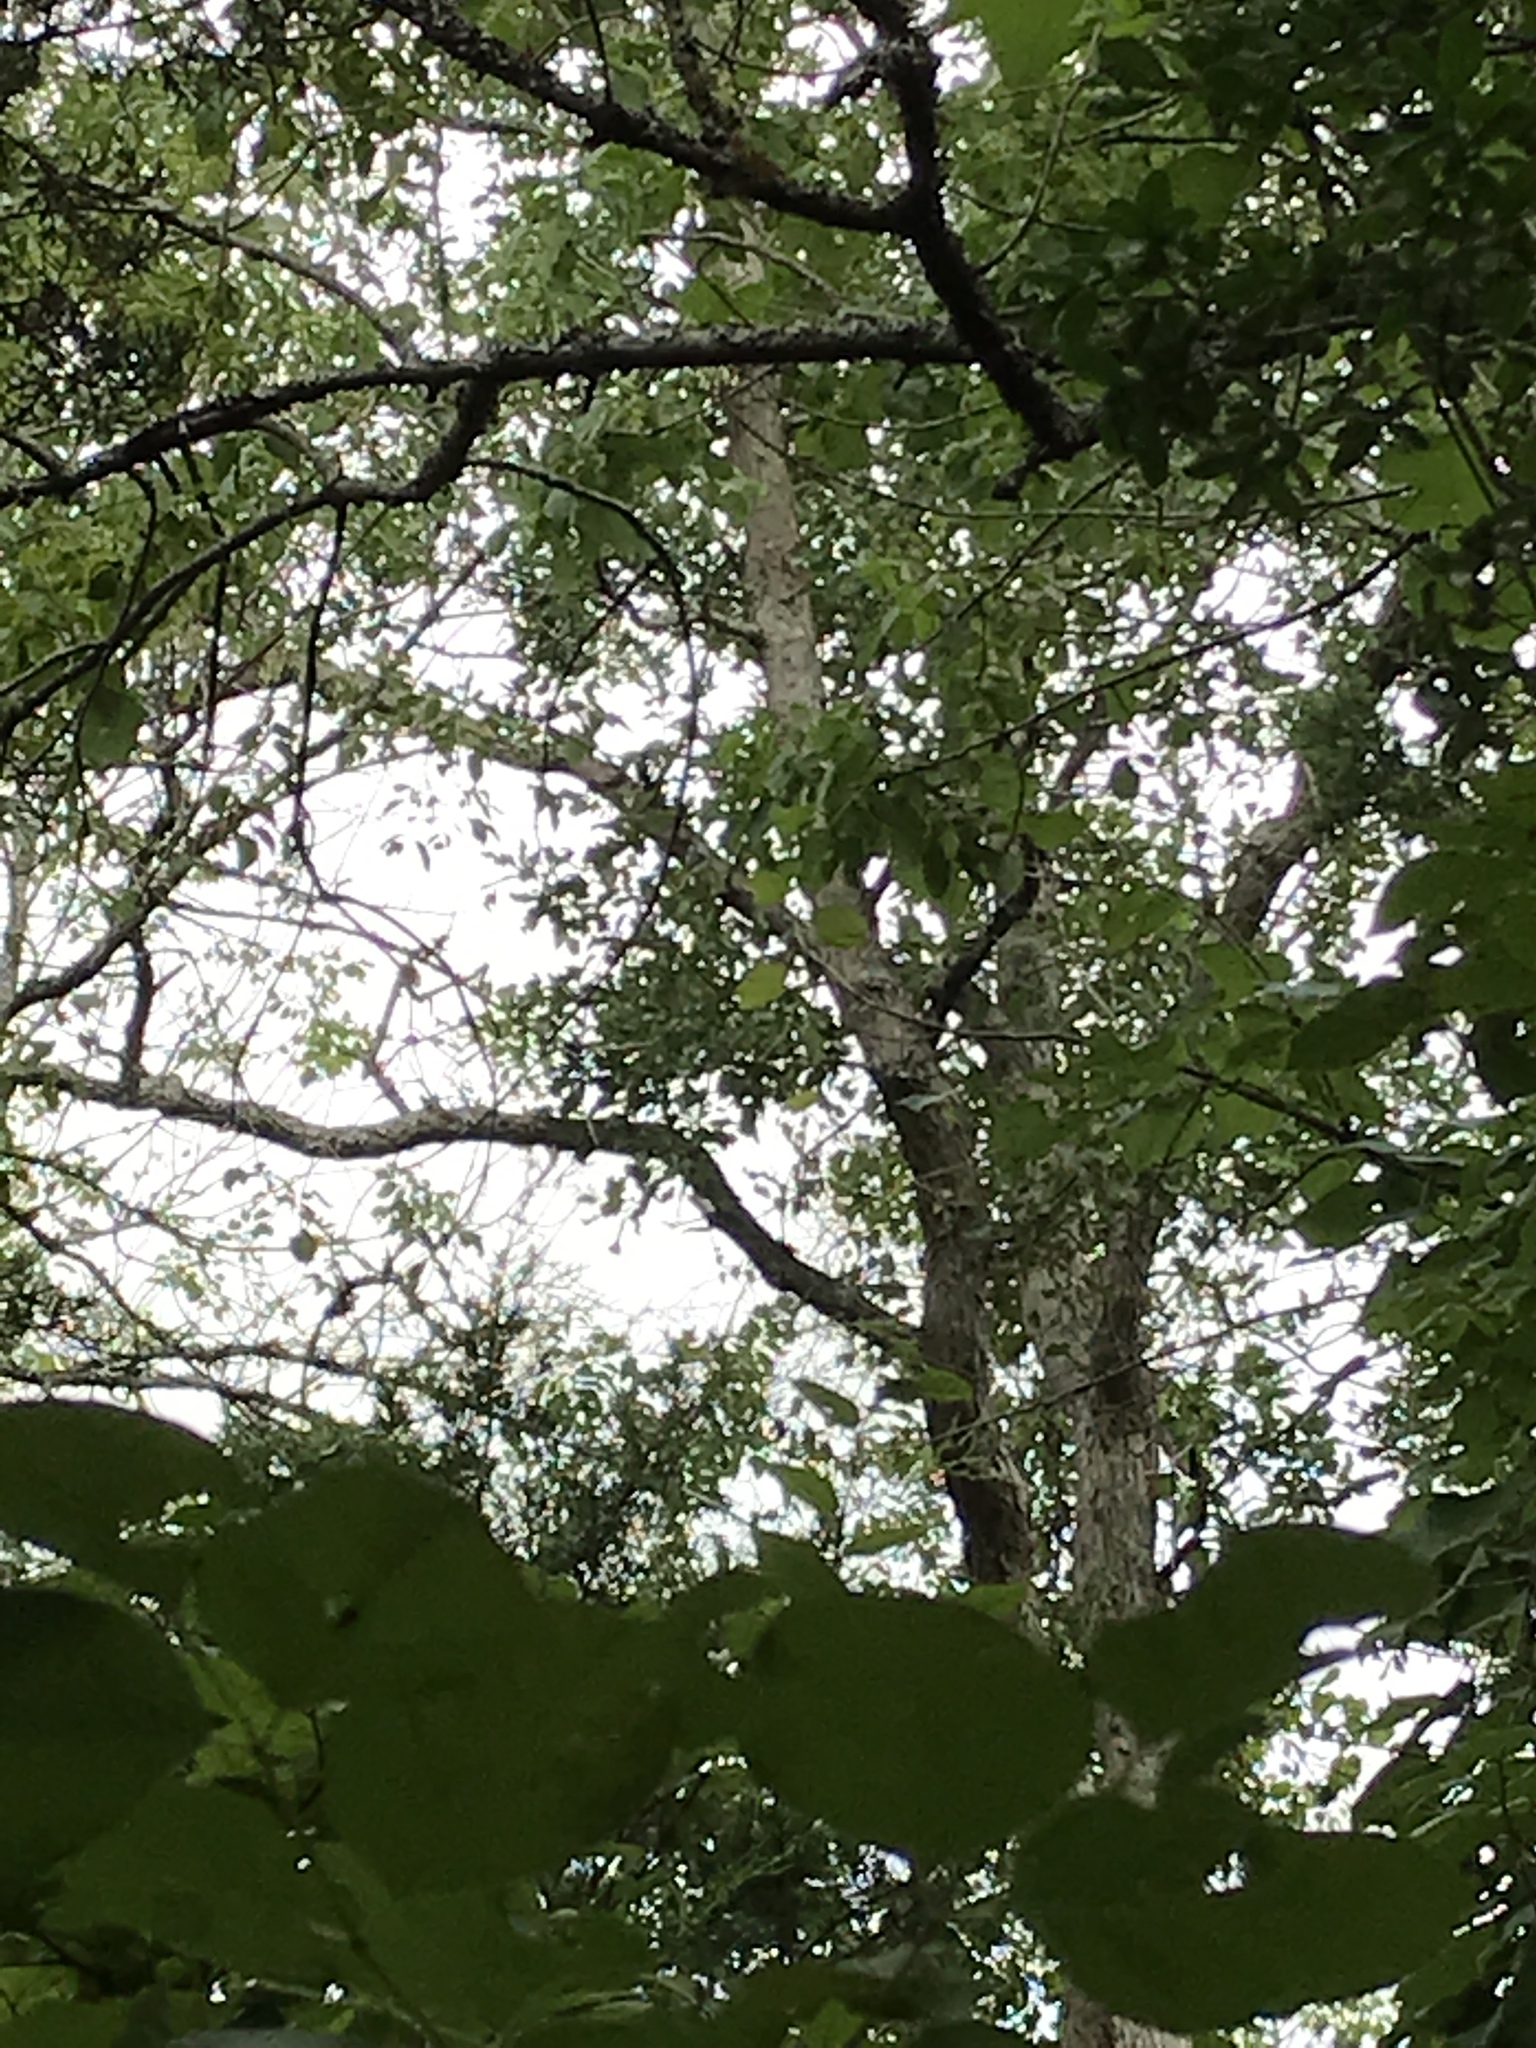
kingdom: Plantae
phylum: Tracheophyta
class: Magnoliopsida
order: Fagales
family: Fagaceae
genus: Quercus
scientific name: Quercus sinuata
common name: Durand oak
